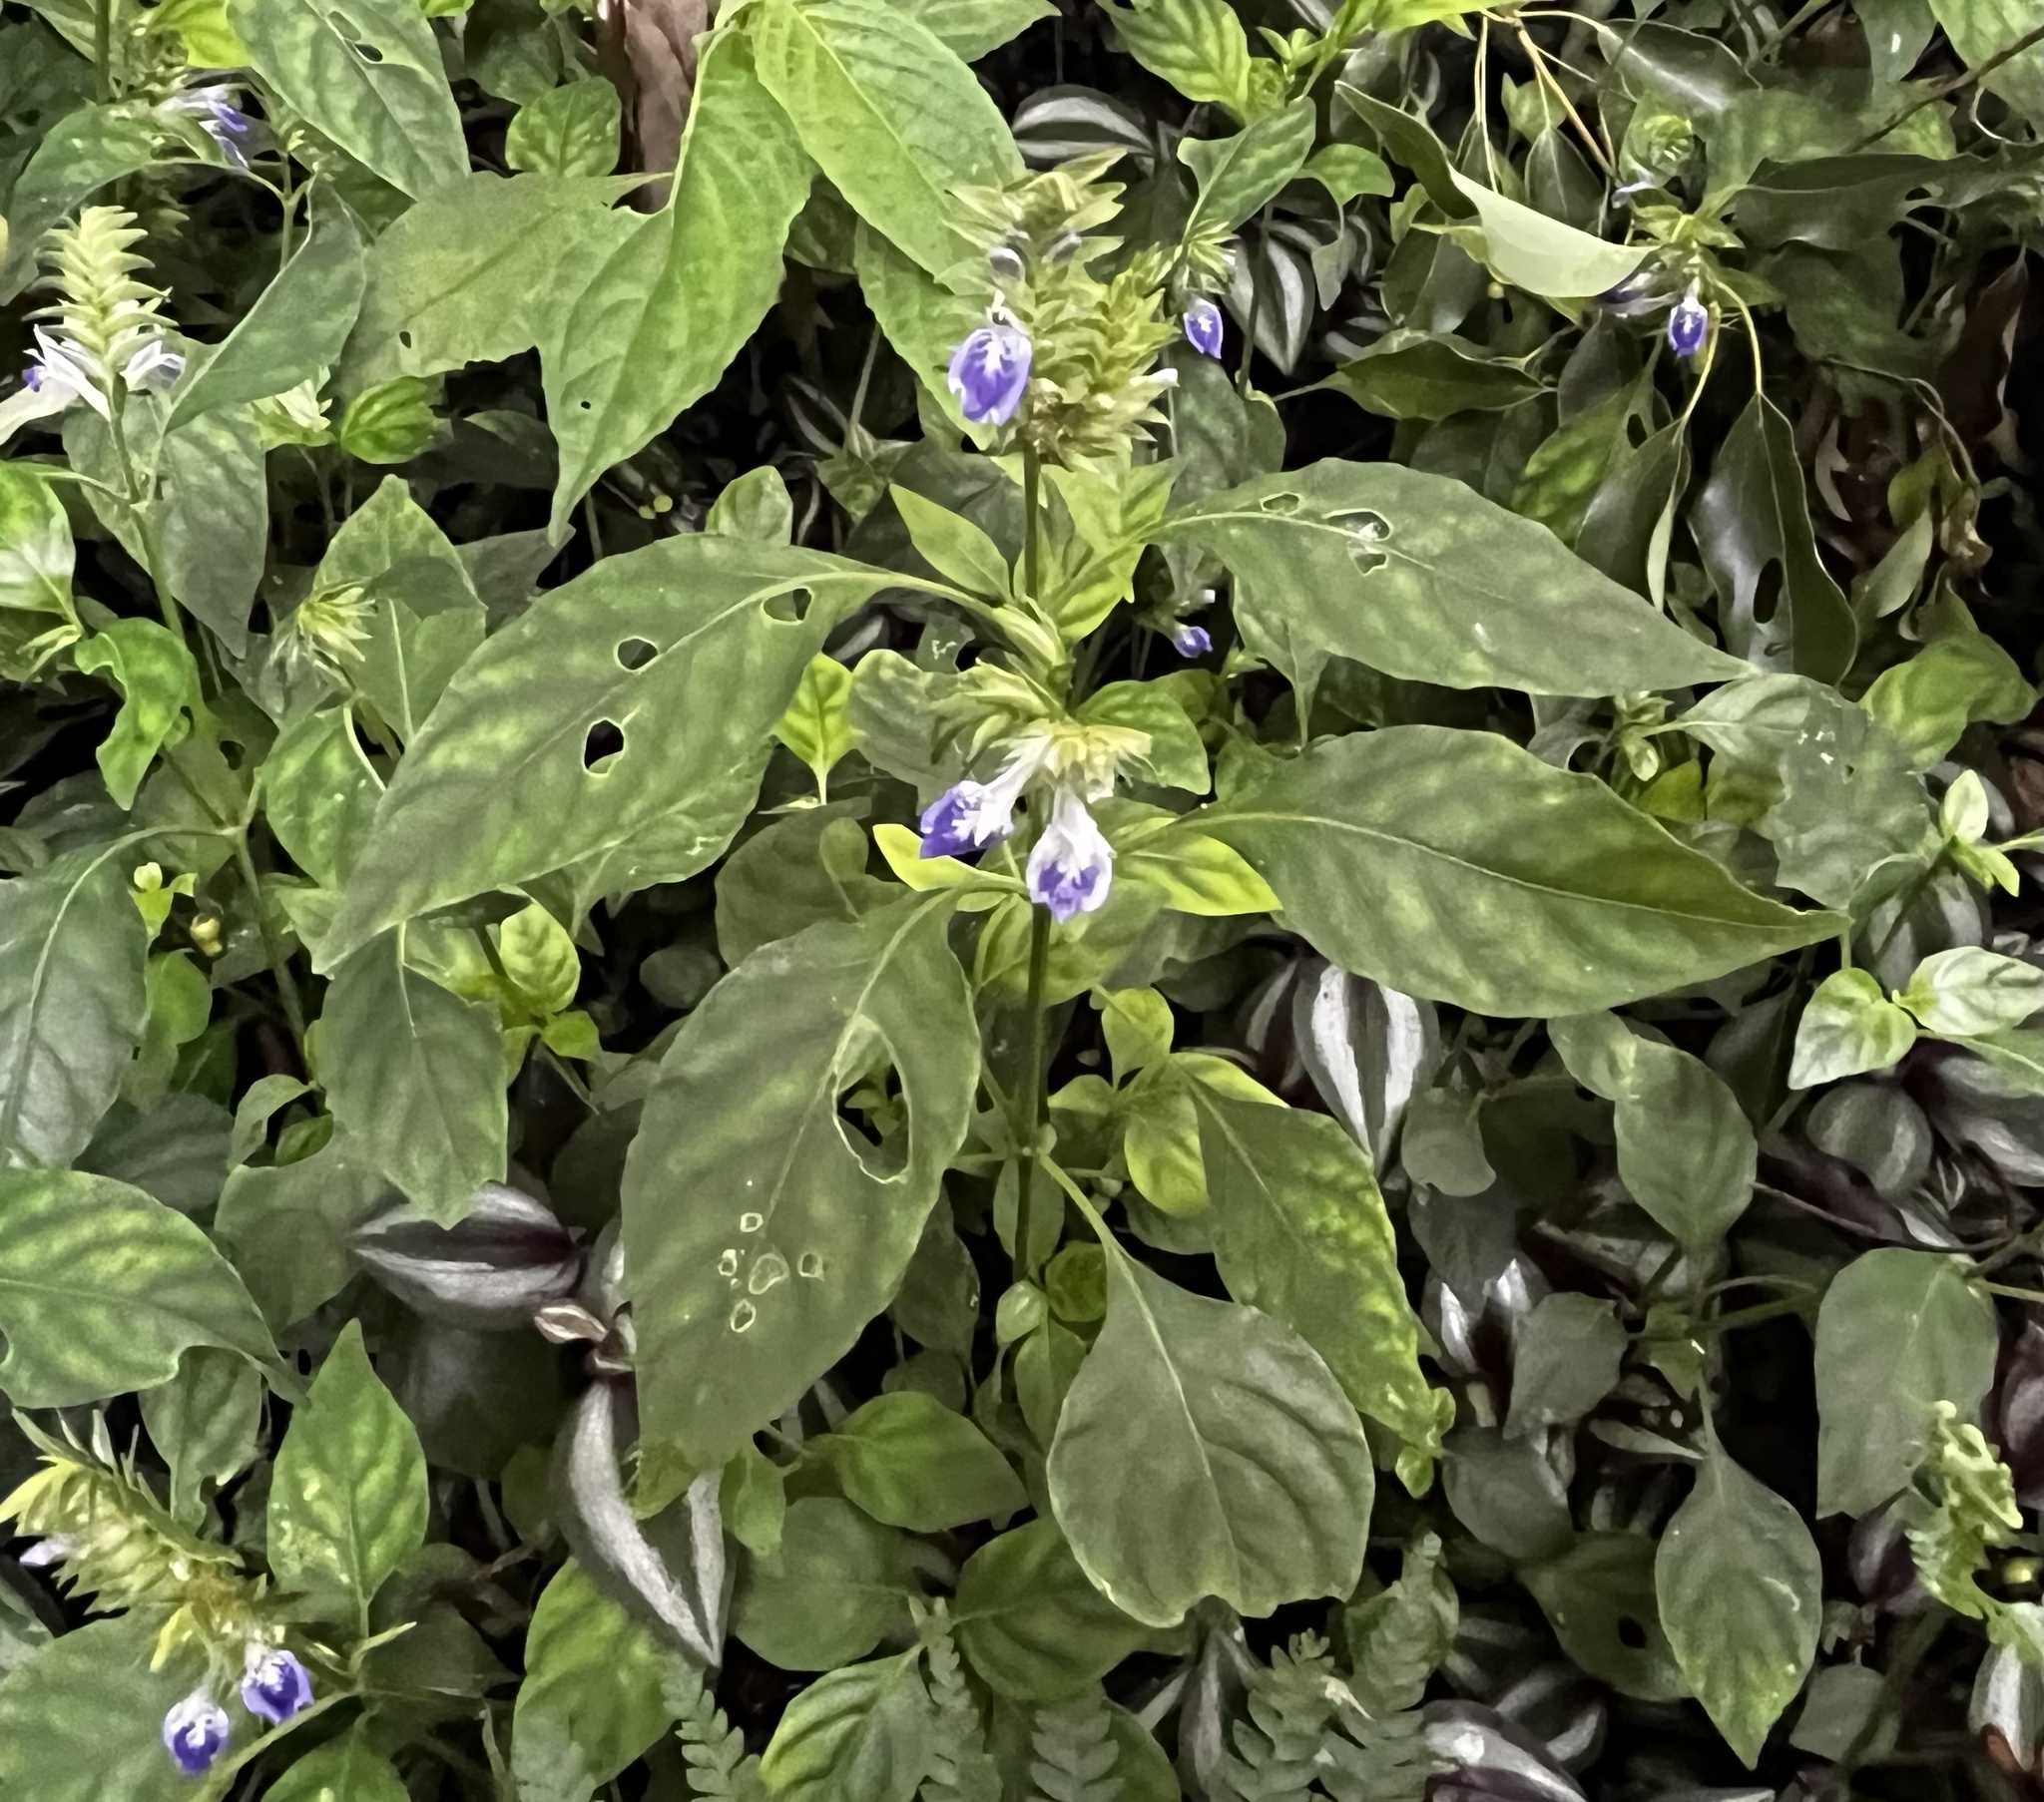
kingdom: Plantae
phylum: Tracheophyta
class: Magnoliopsida
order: Lamiales
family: Acanthaceae
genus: Rungia
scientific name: Rungia taiwanensis
